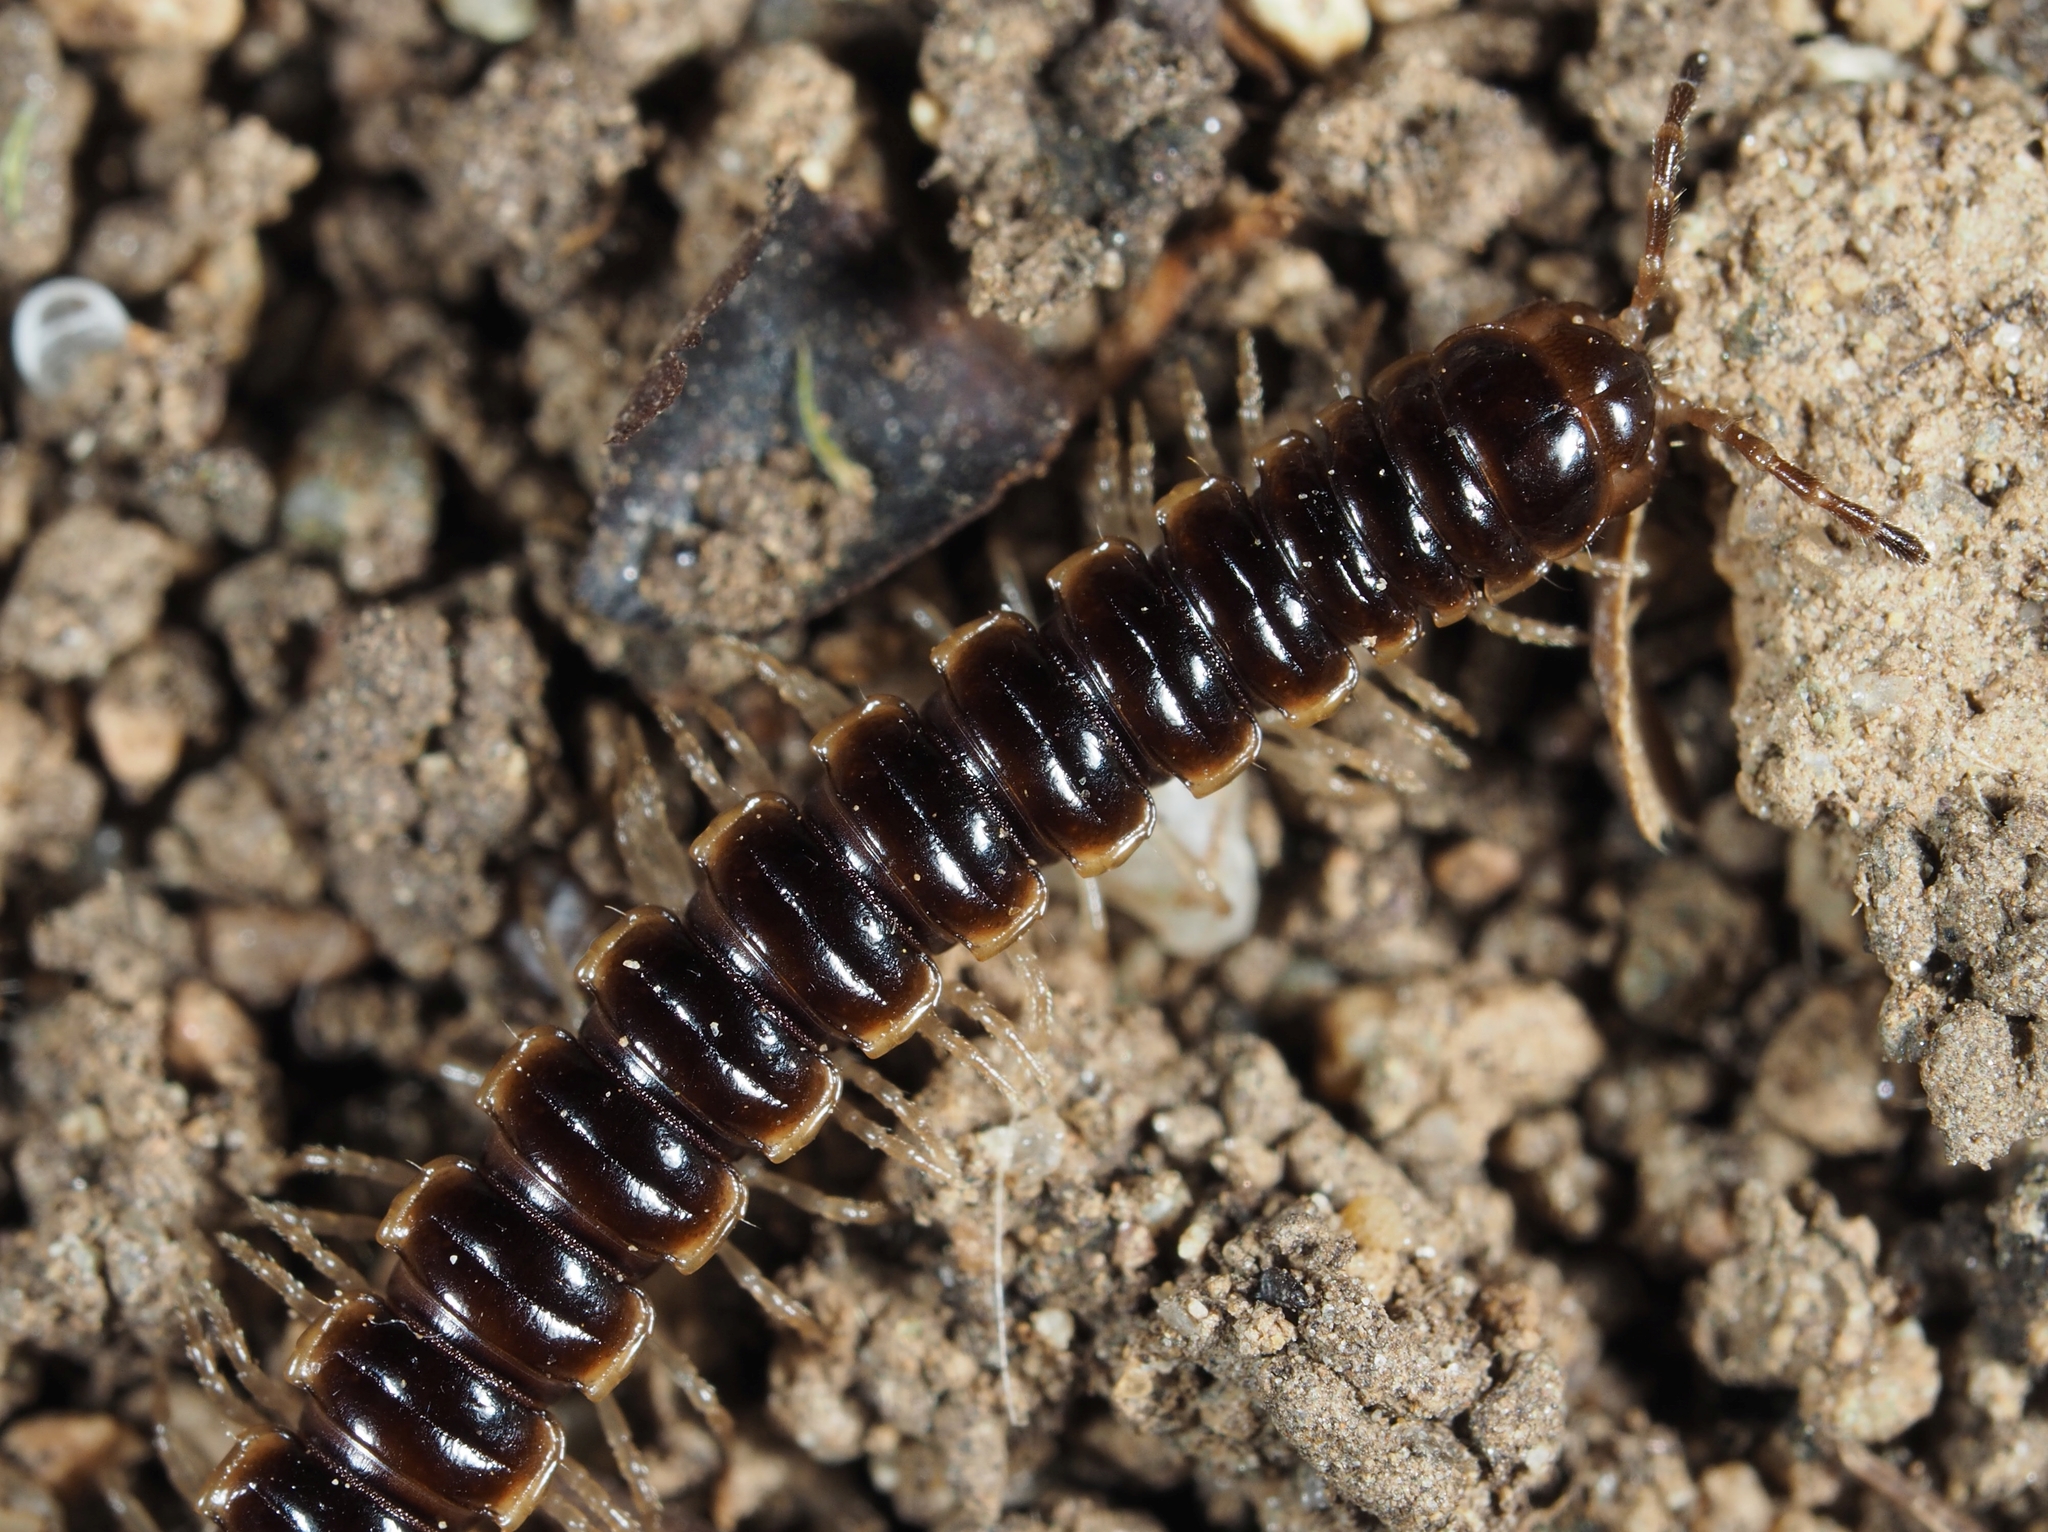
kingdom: Animalia
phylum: Arthropoda
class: Diplopoda
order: Polydesmida
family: Paradoxosomatidae
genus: Oxidus
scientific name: Oxidus gracilis
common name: Greenhouse millipede
